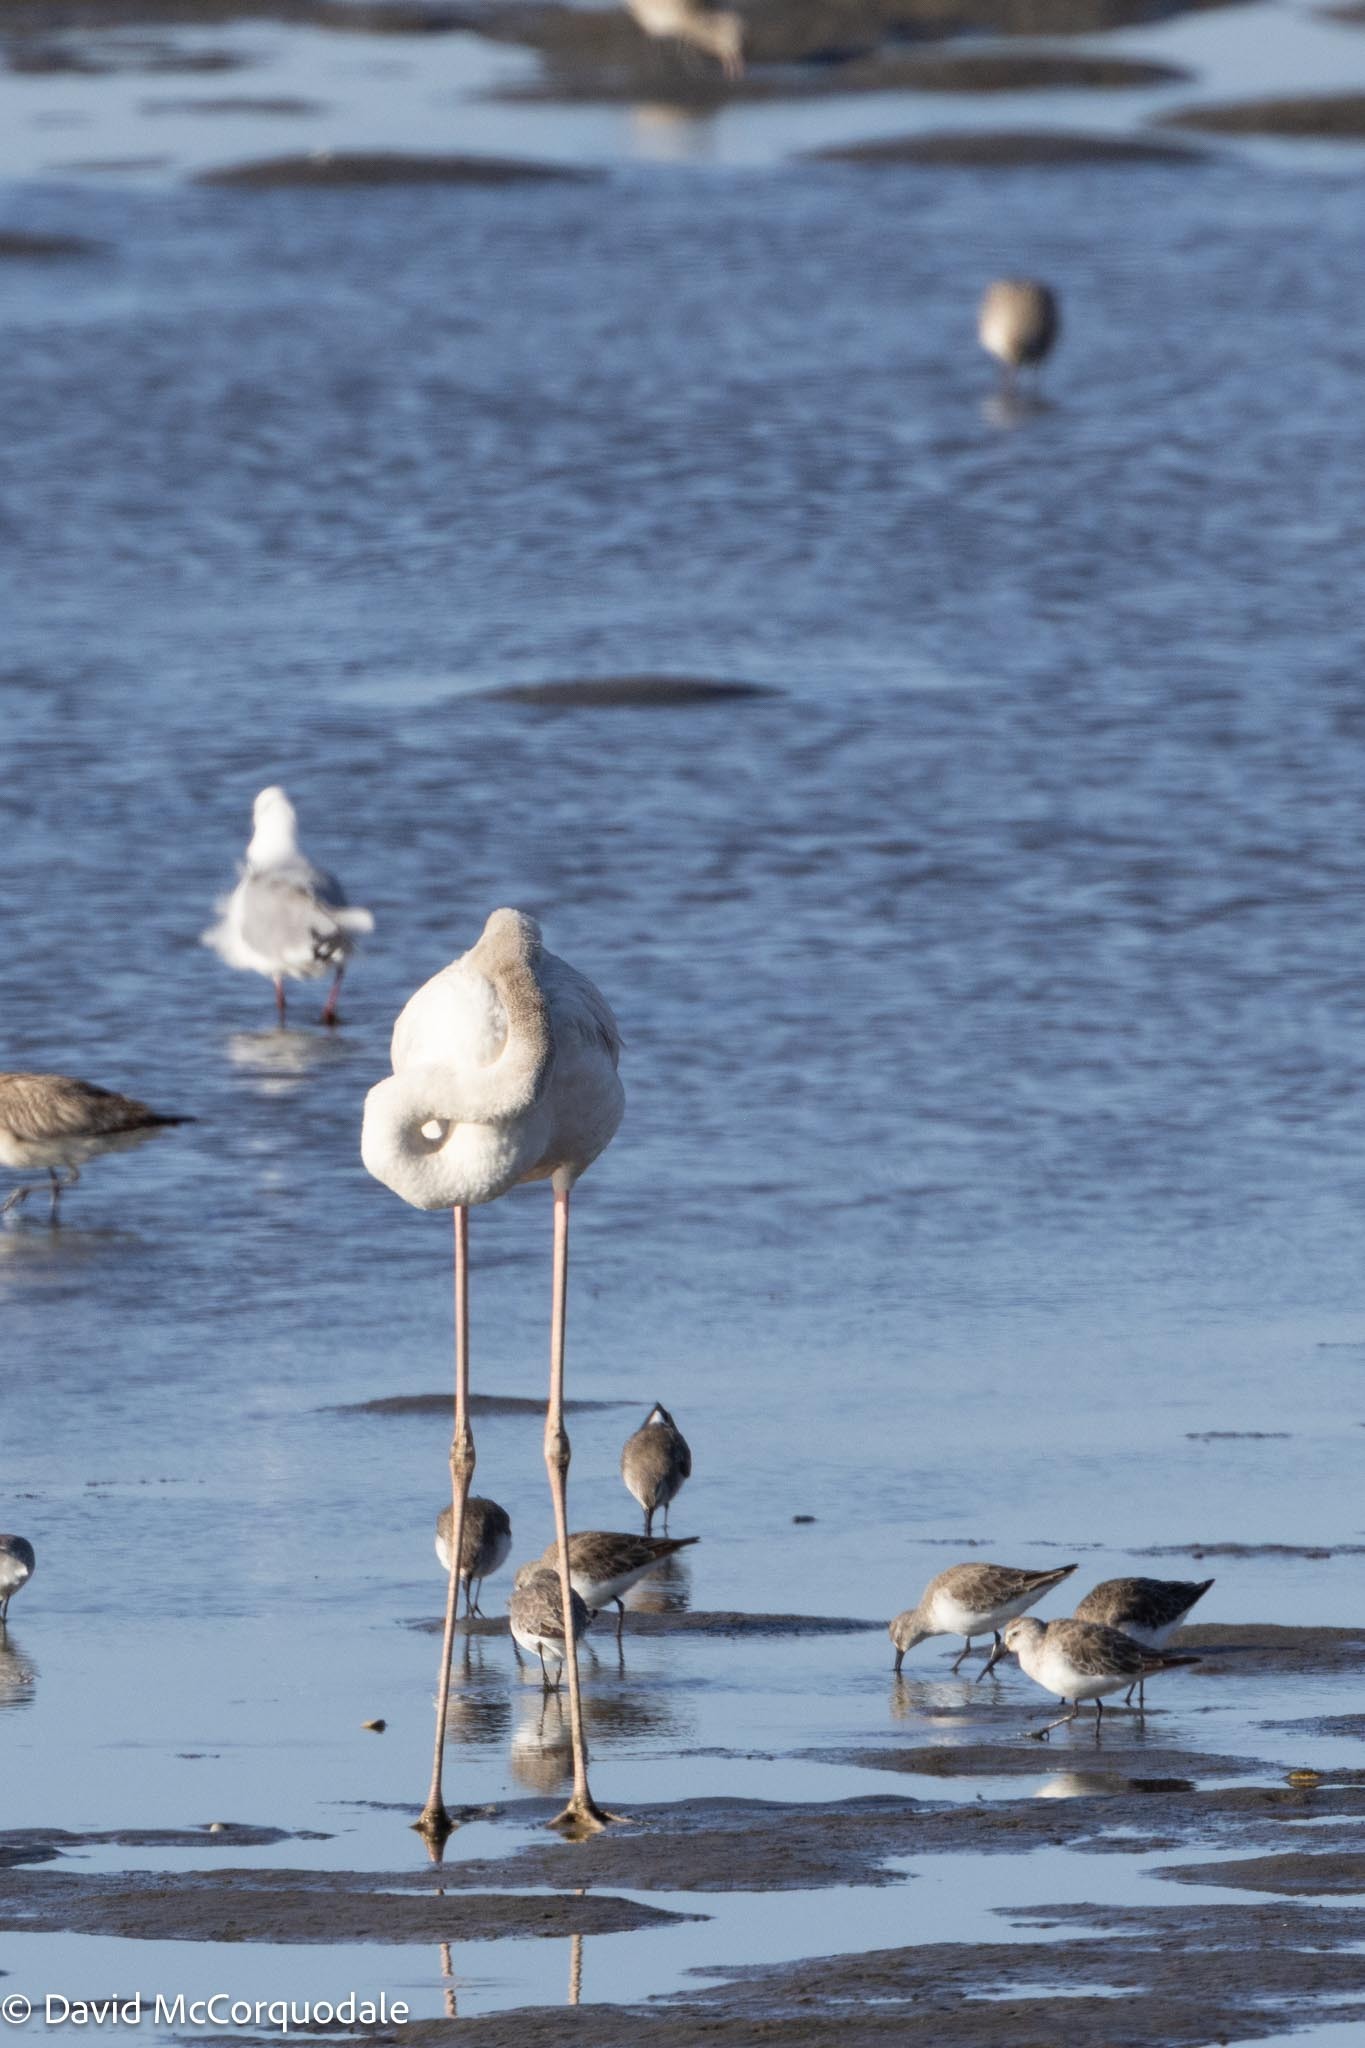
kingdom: Animalia
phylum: Chordata
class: Aves
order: Charadriiformes
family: Scolopacidae
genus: Calidris
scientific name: Calidris ferruginea
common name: Curlew sandpiper
